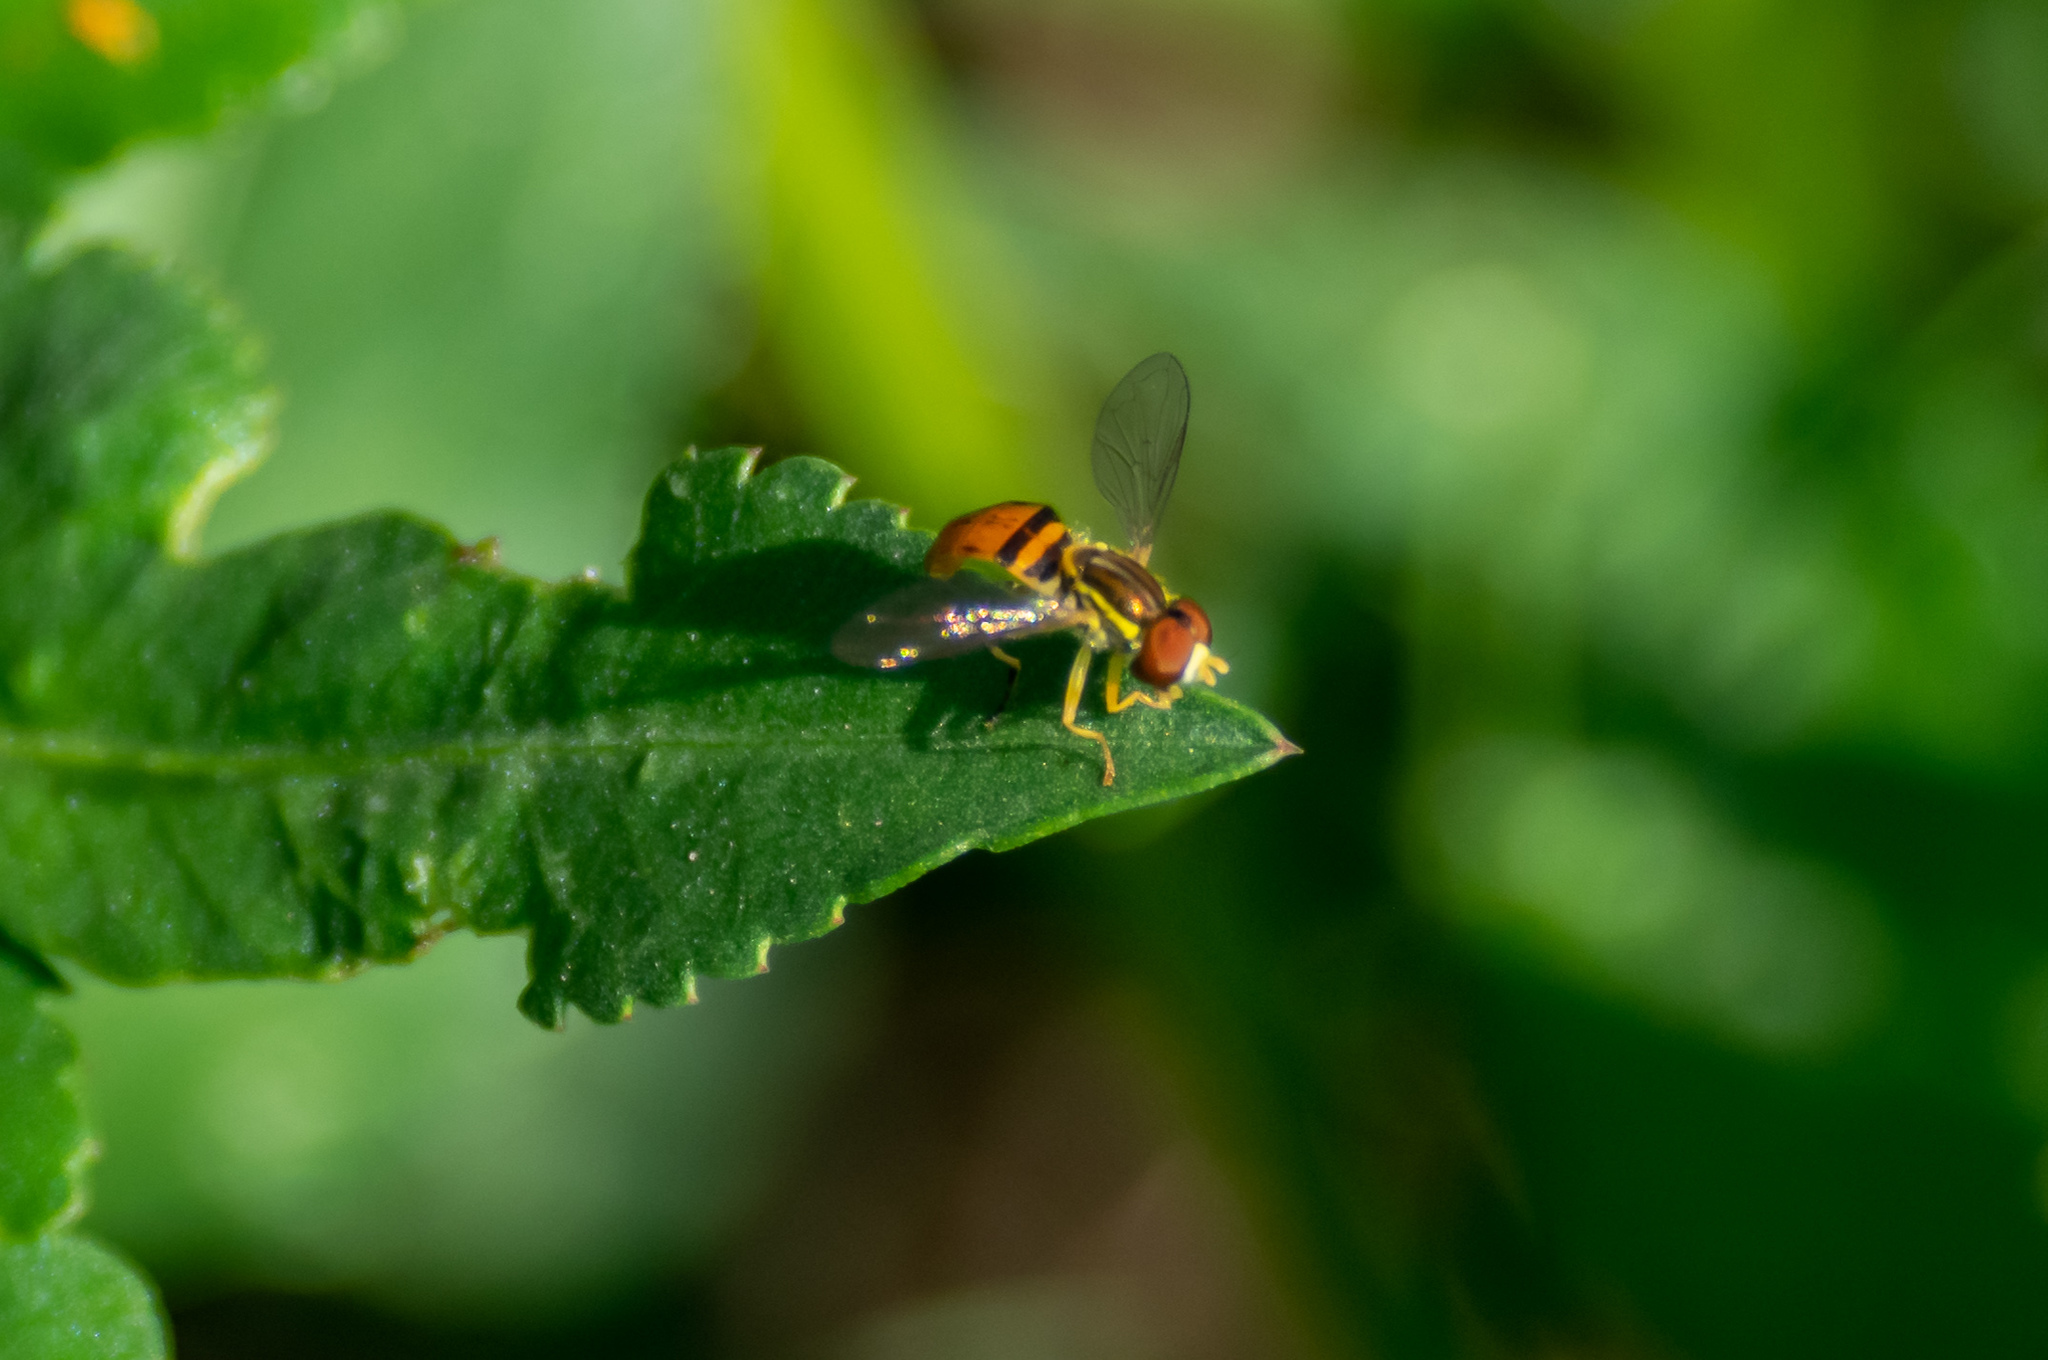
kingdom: Animalia
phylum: Arthropoda
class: Insecta
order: Diptera
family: Syrphidae
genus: Toxomerus
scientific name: Toxomerus floralis
